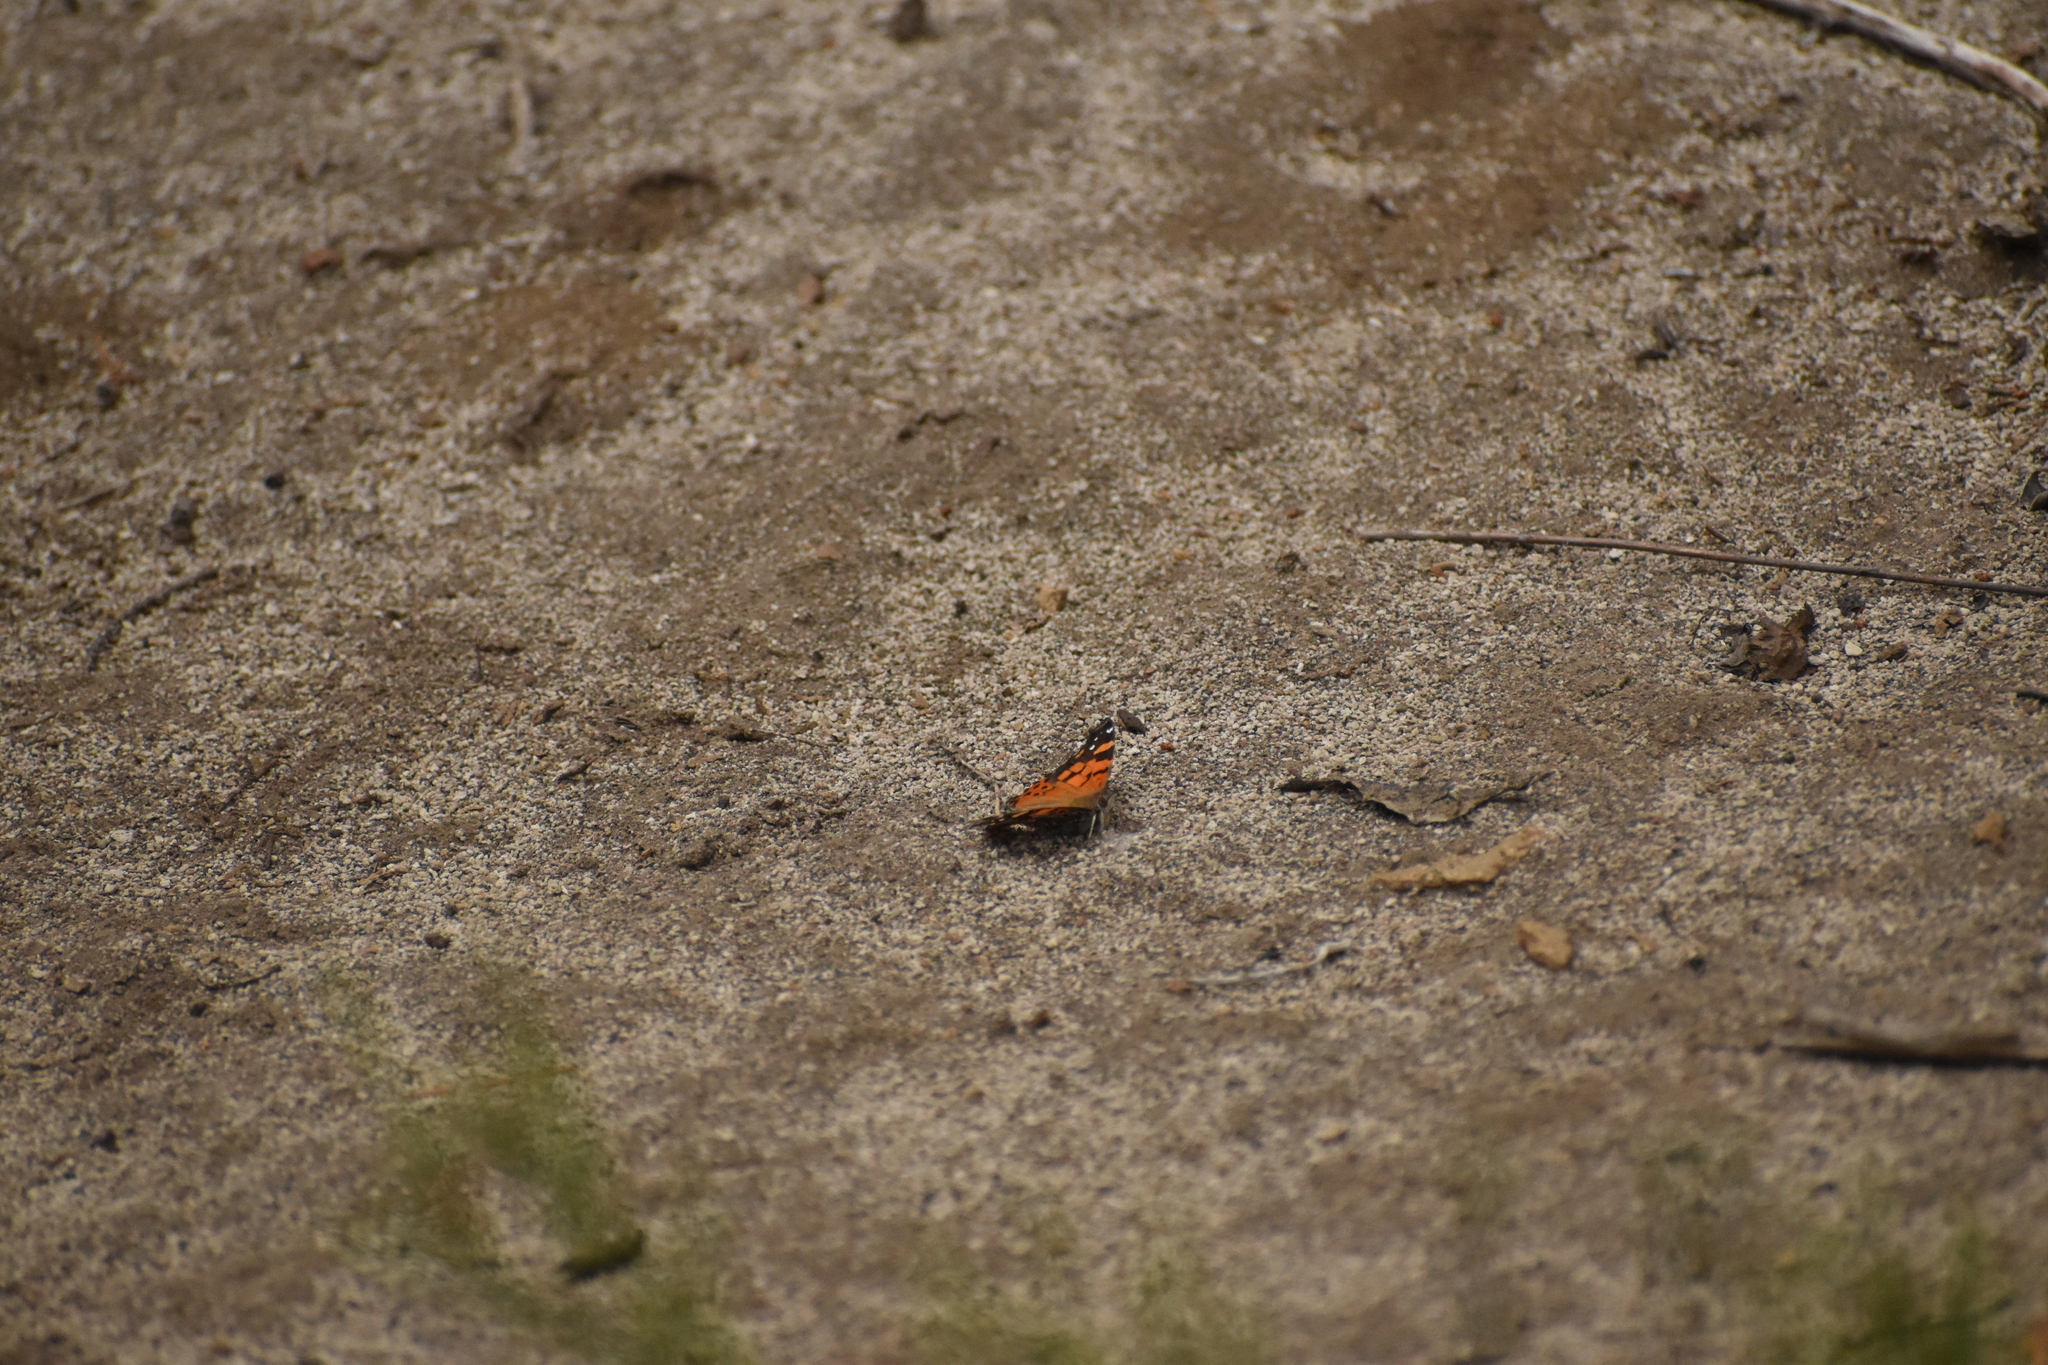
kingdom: Animalia
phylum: Arthropoda
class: Insecta
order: Lepidoptera
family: Nymphalidae
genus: Vanessa
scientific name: Vanessa carye
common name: Subtropical lady
